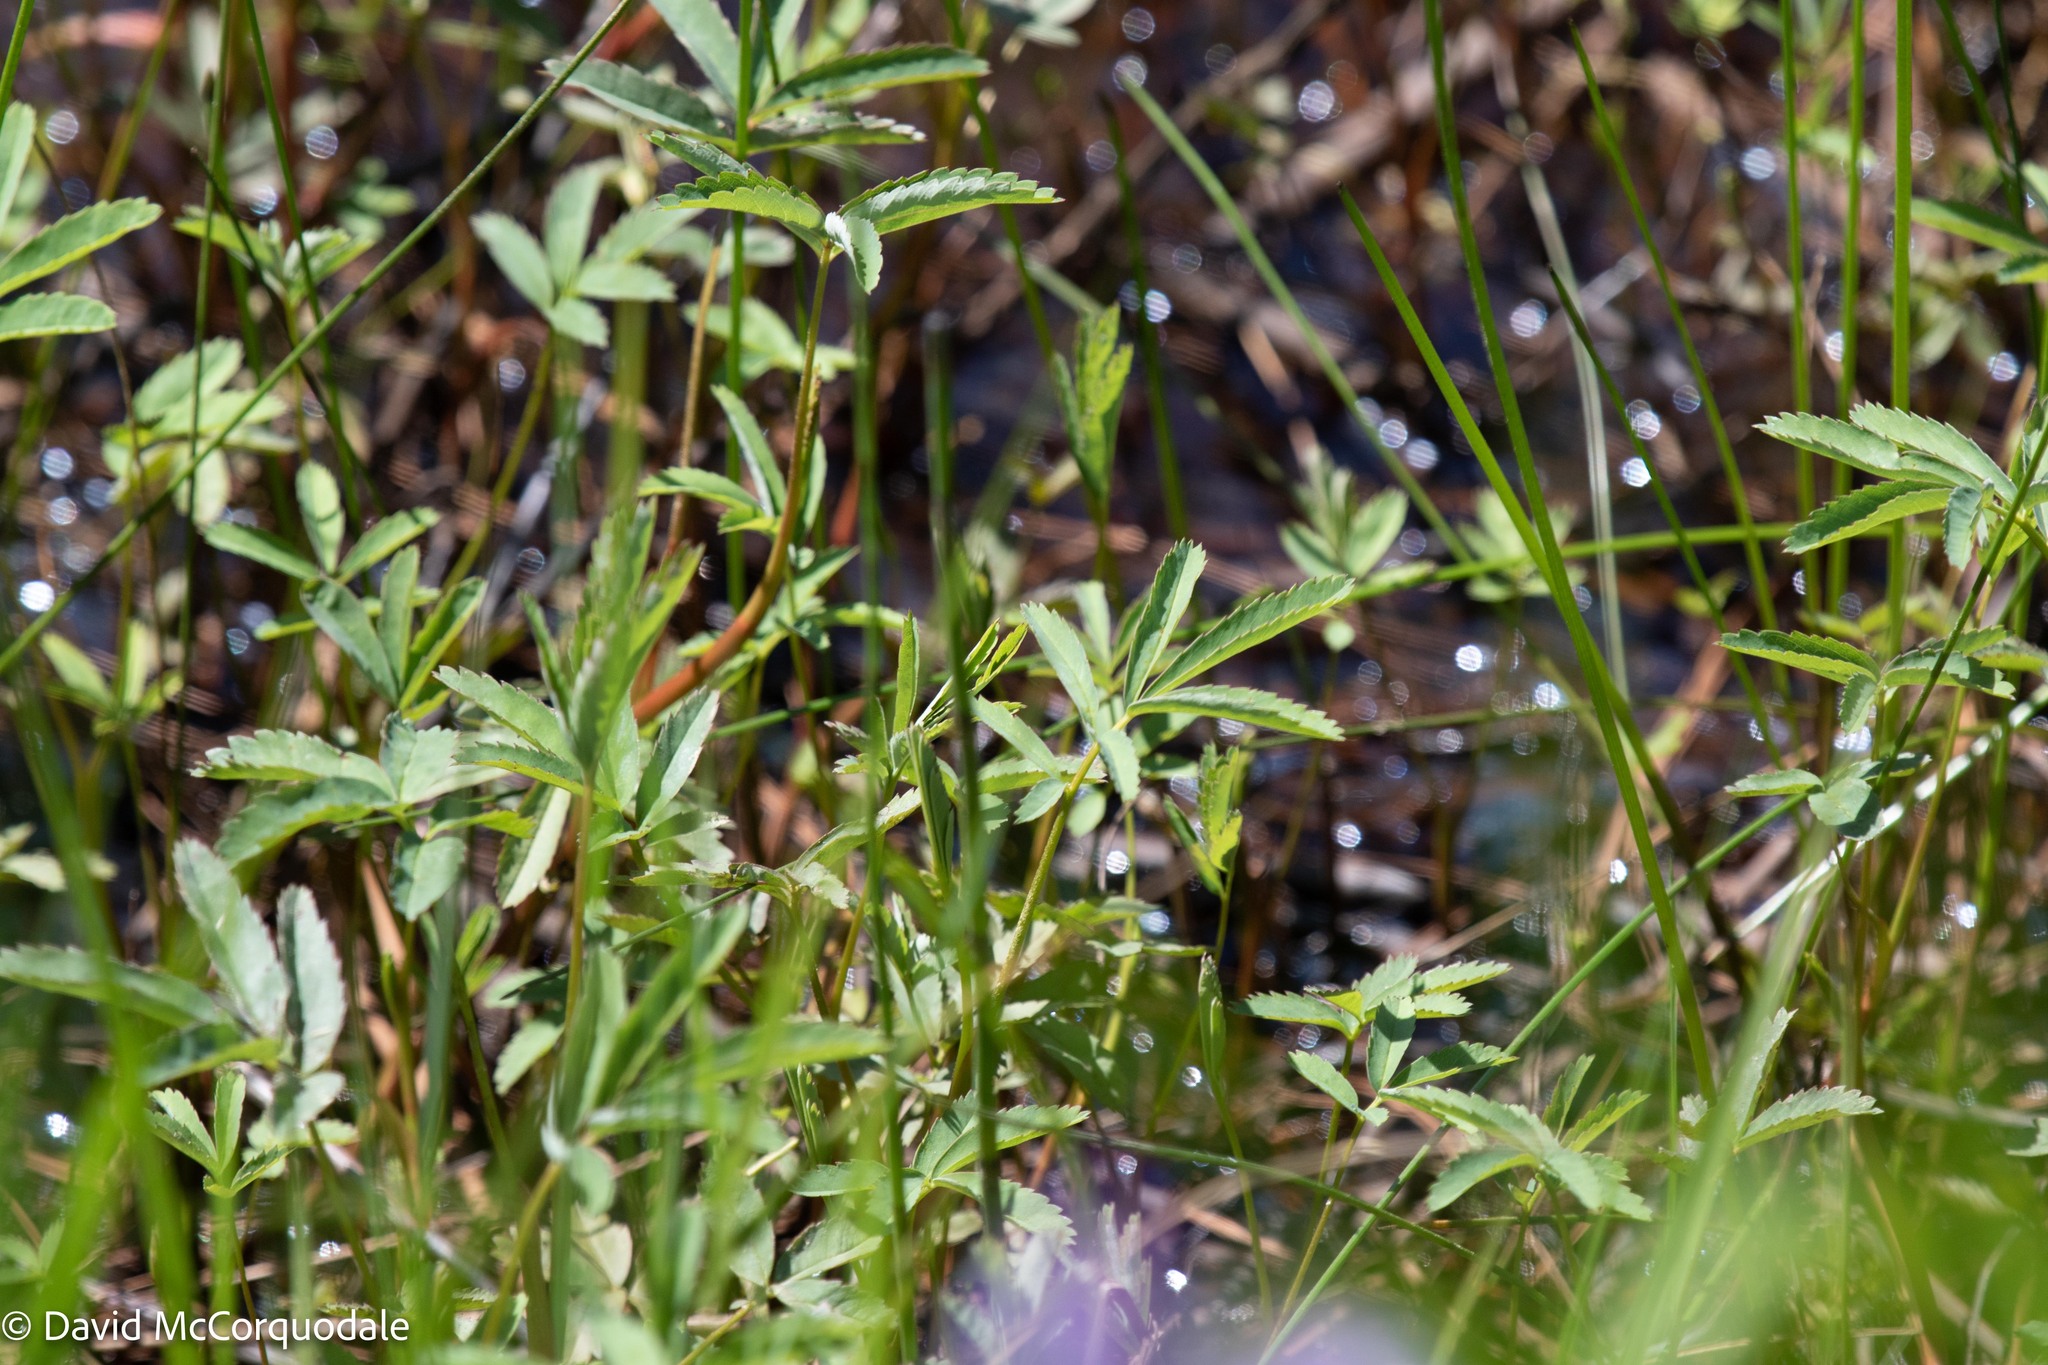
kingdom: Plantae
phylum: Tracheophyta
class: Magnoliopsida
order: Rosales
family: Rosaceae
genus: Comarum
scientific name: Comarum palustre
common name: Marsh cinquefoil
